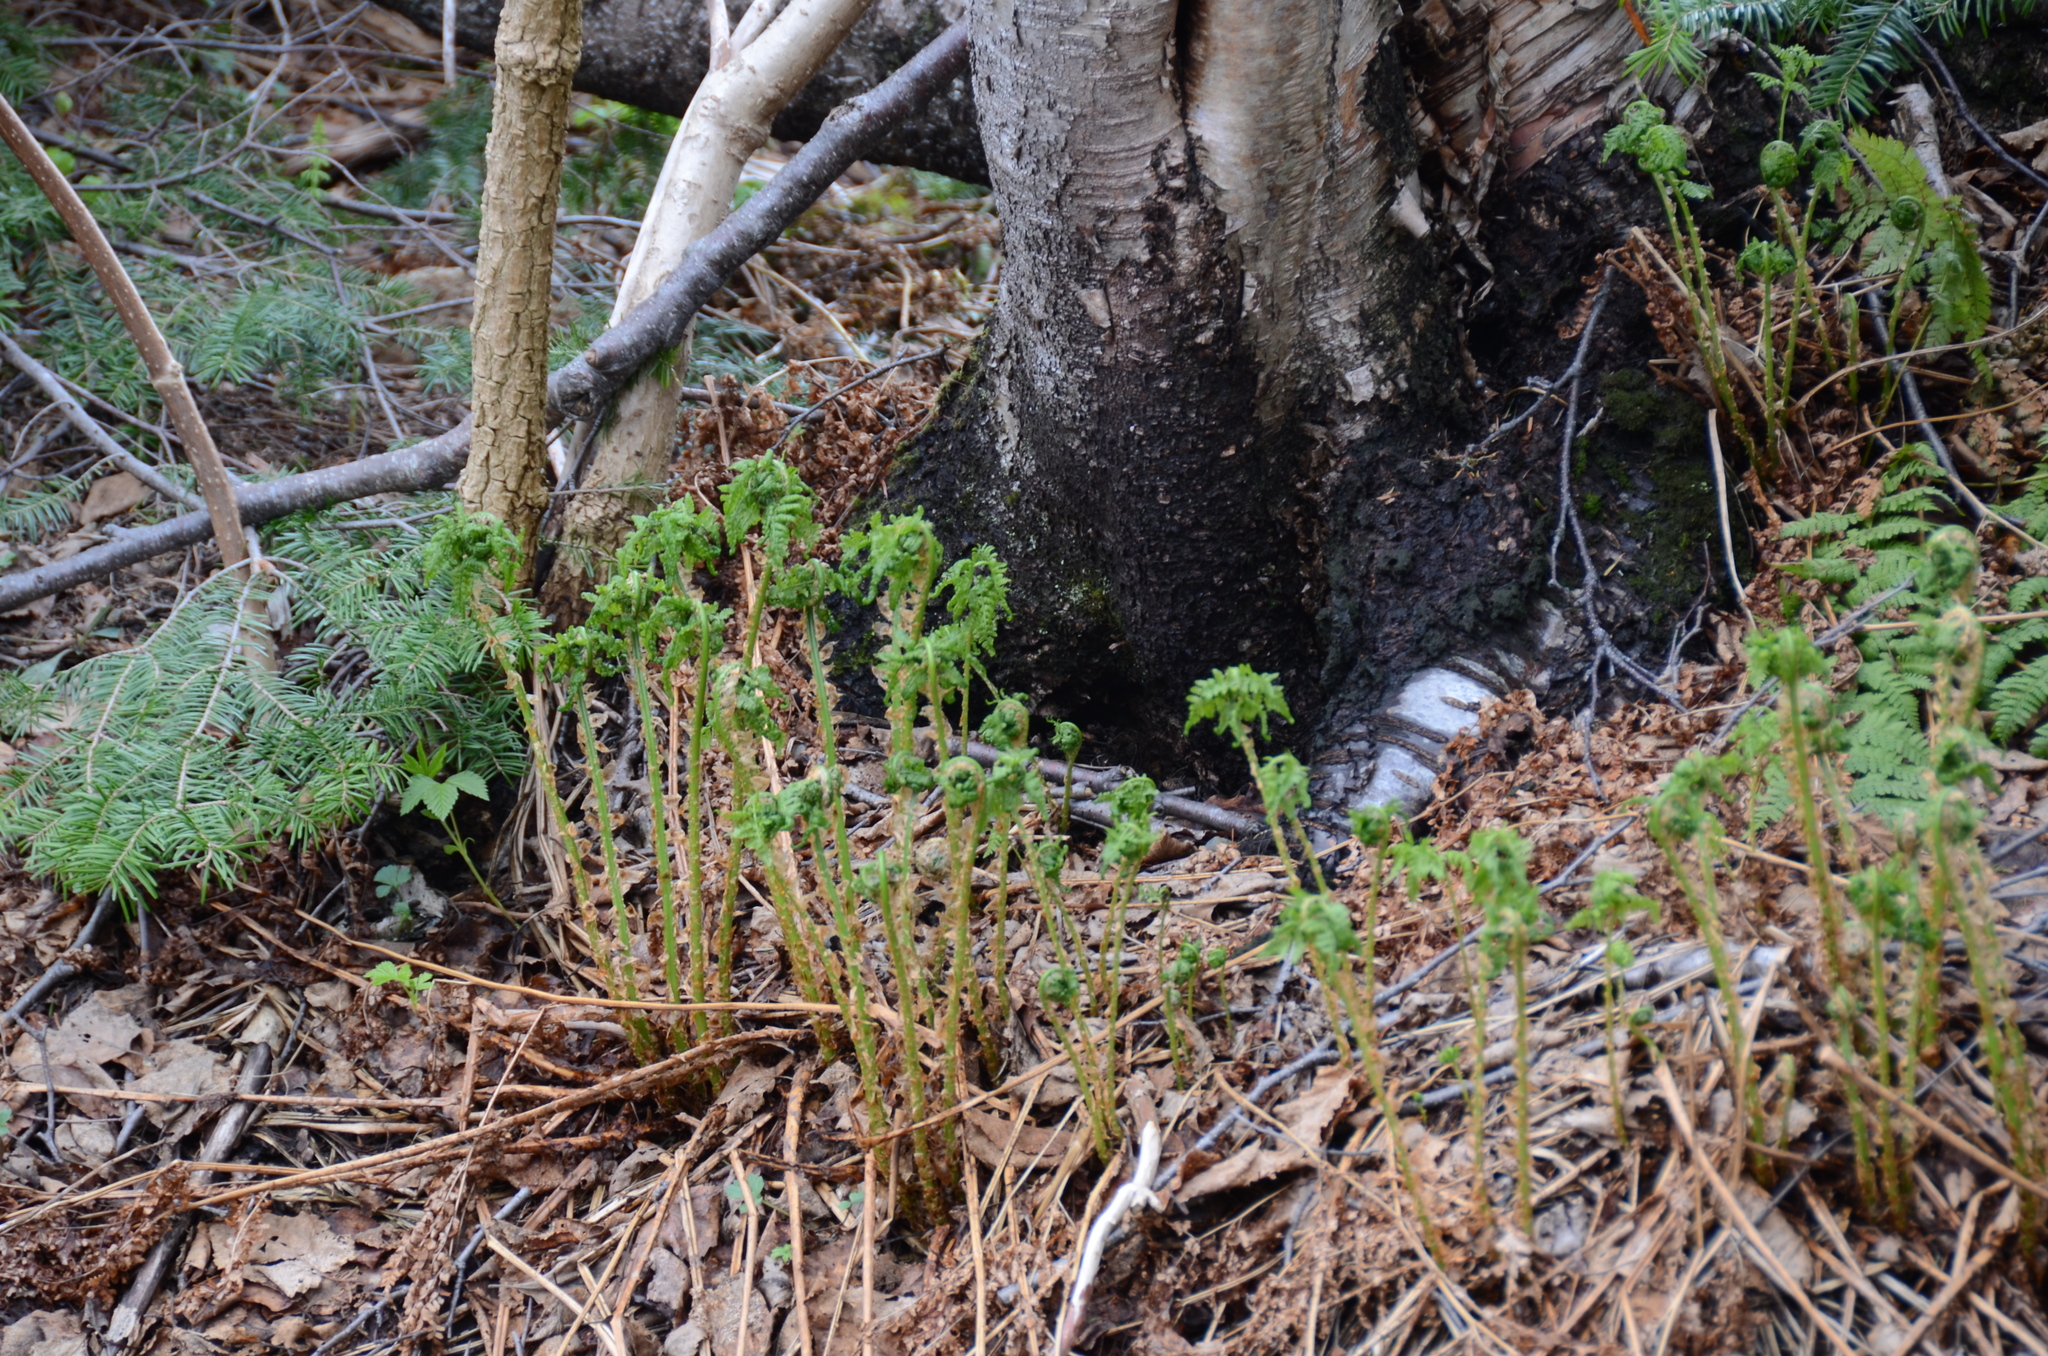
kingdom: Plantae
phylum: Tracheophyta
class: Polypodiopsida
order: Osmundales
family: Osmundaceae
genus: Osmundastrum
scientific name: Osmundastrum cinnamomeum
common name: Cinnamon fern
